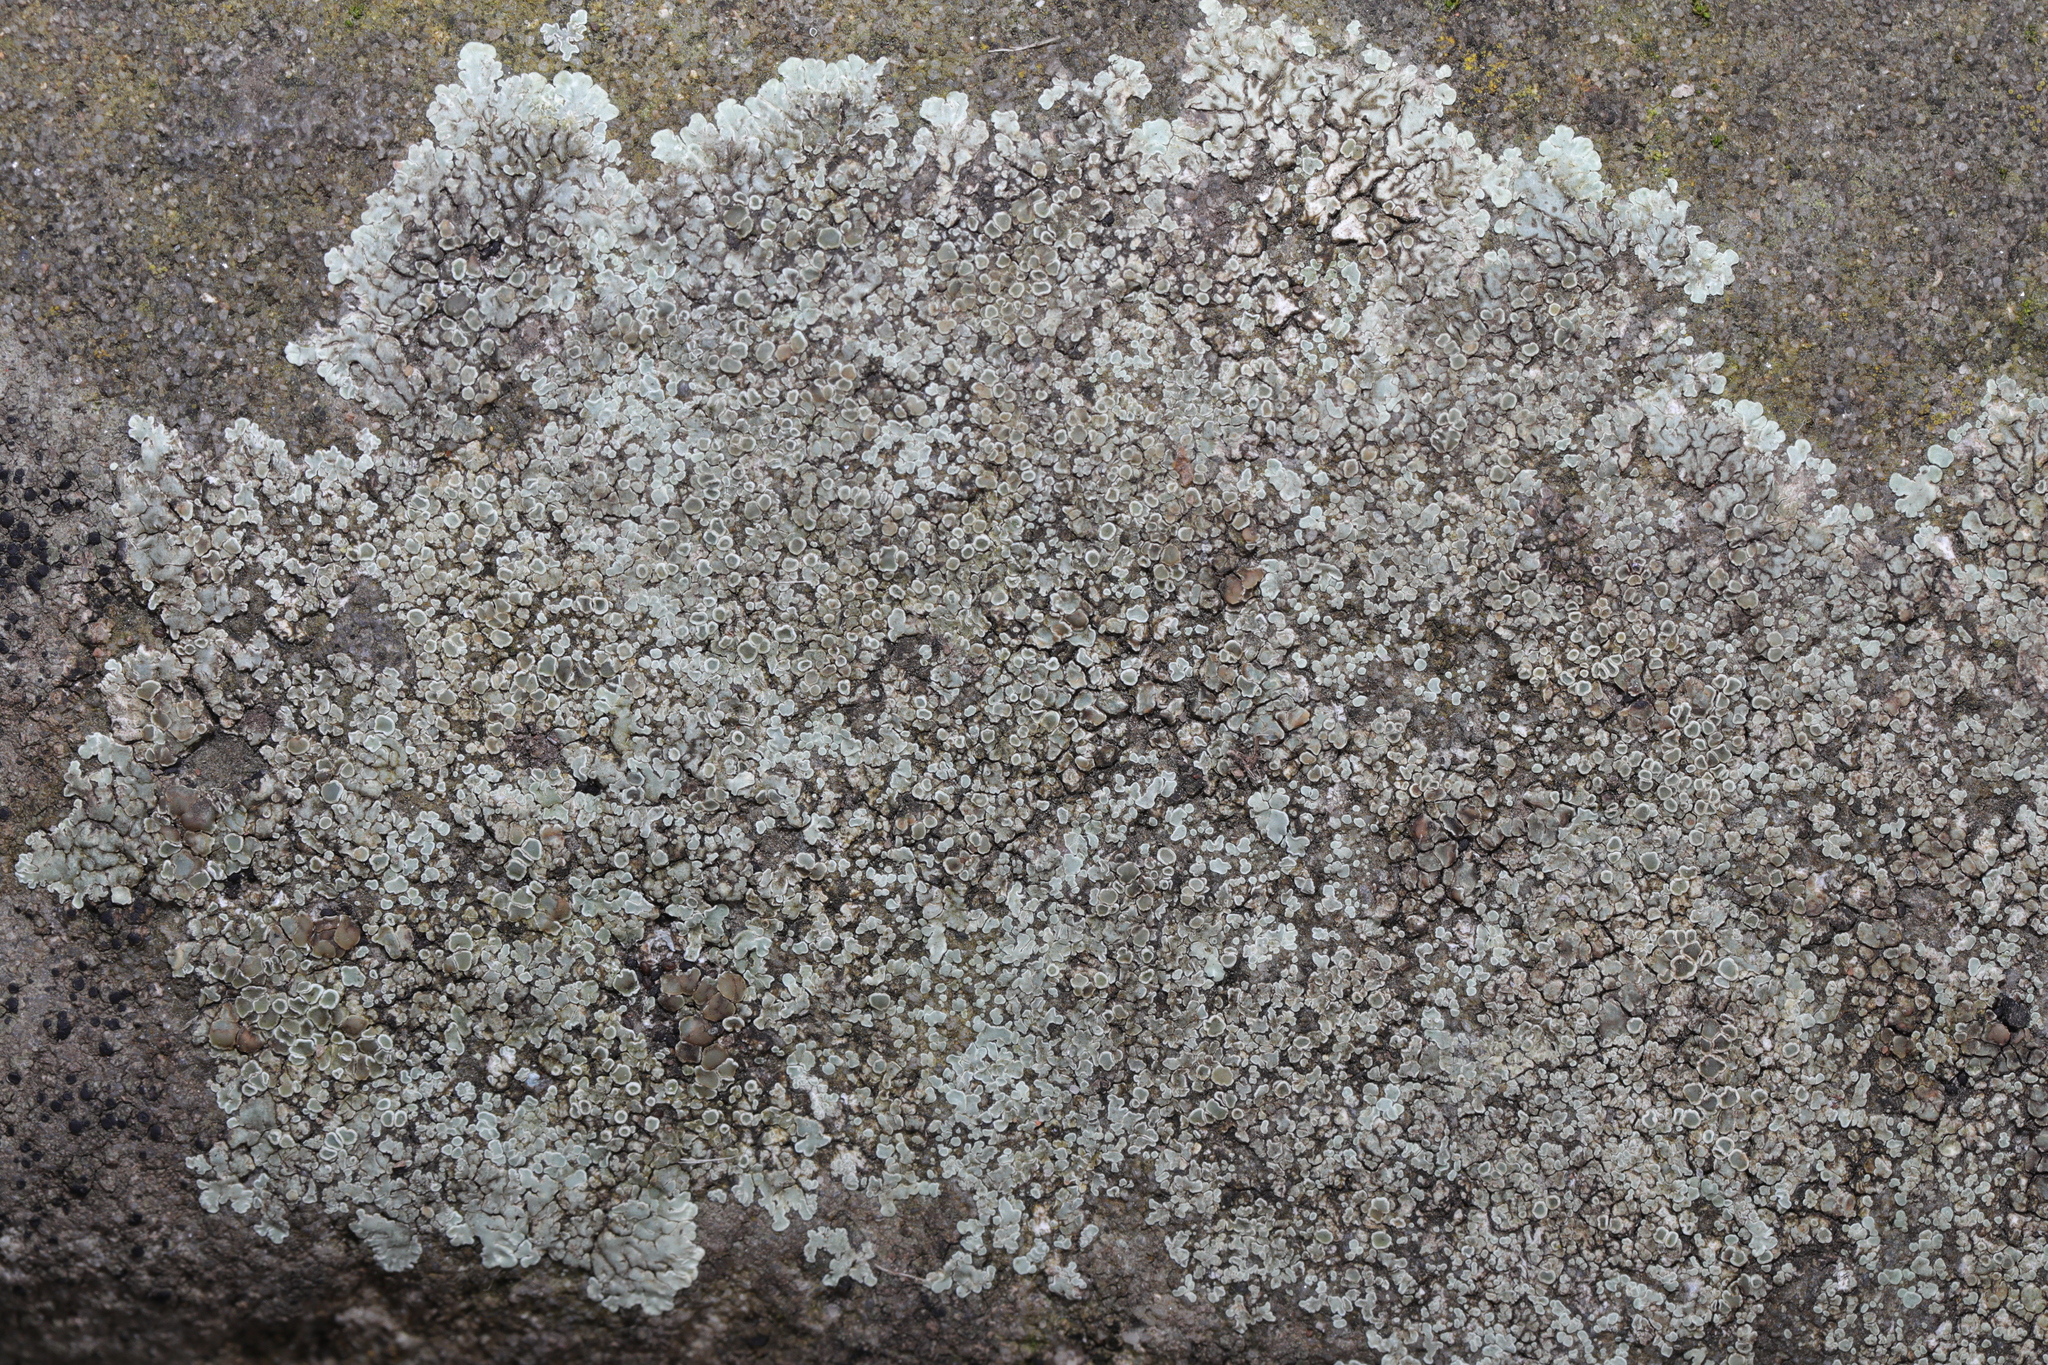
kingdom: Fungi
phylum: Ascomycota
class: Lecanoromycetes
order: Lecanorales
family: Lecanoraceae
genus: Protoparmeliopsis
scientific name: Protoparmeliopsis muralis
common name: Stonewall rim lichen
